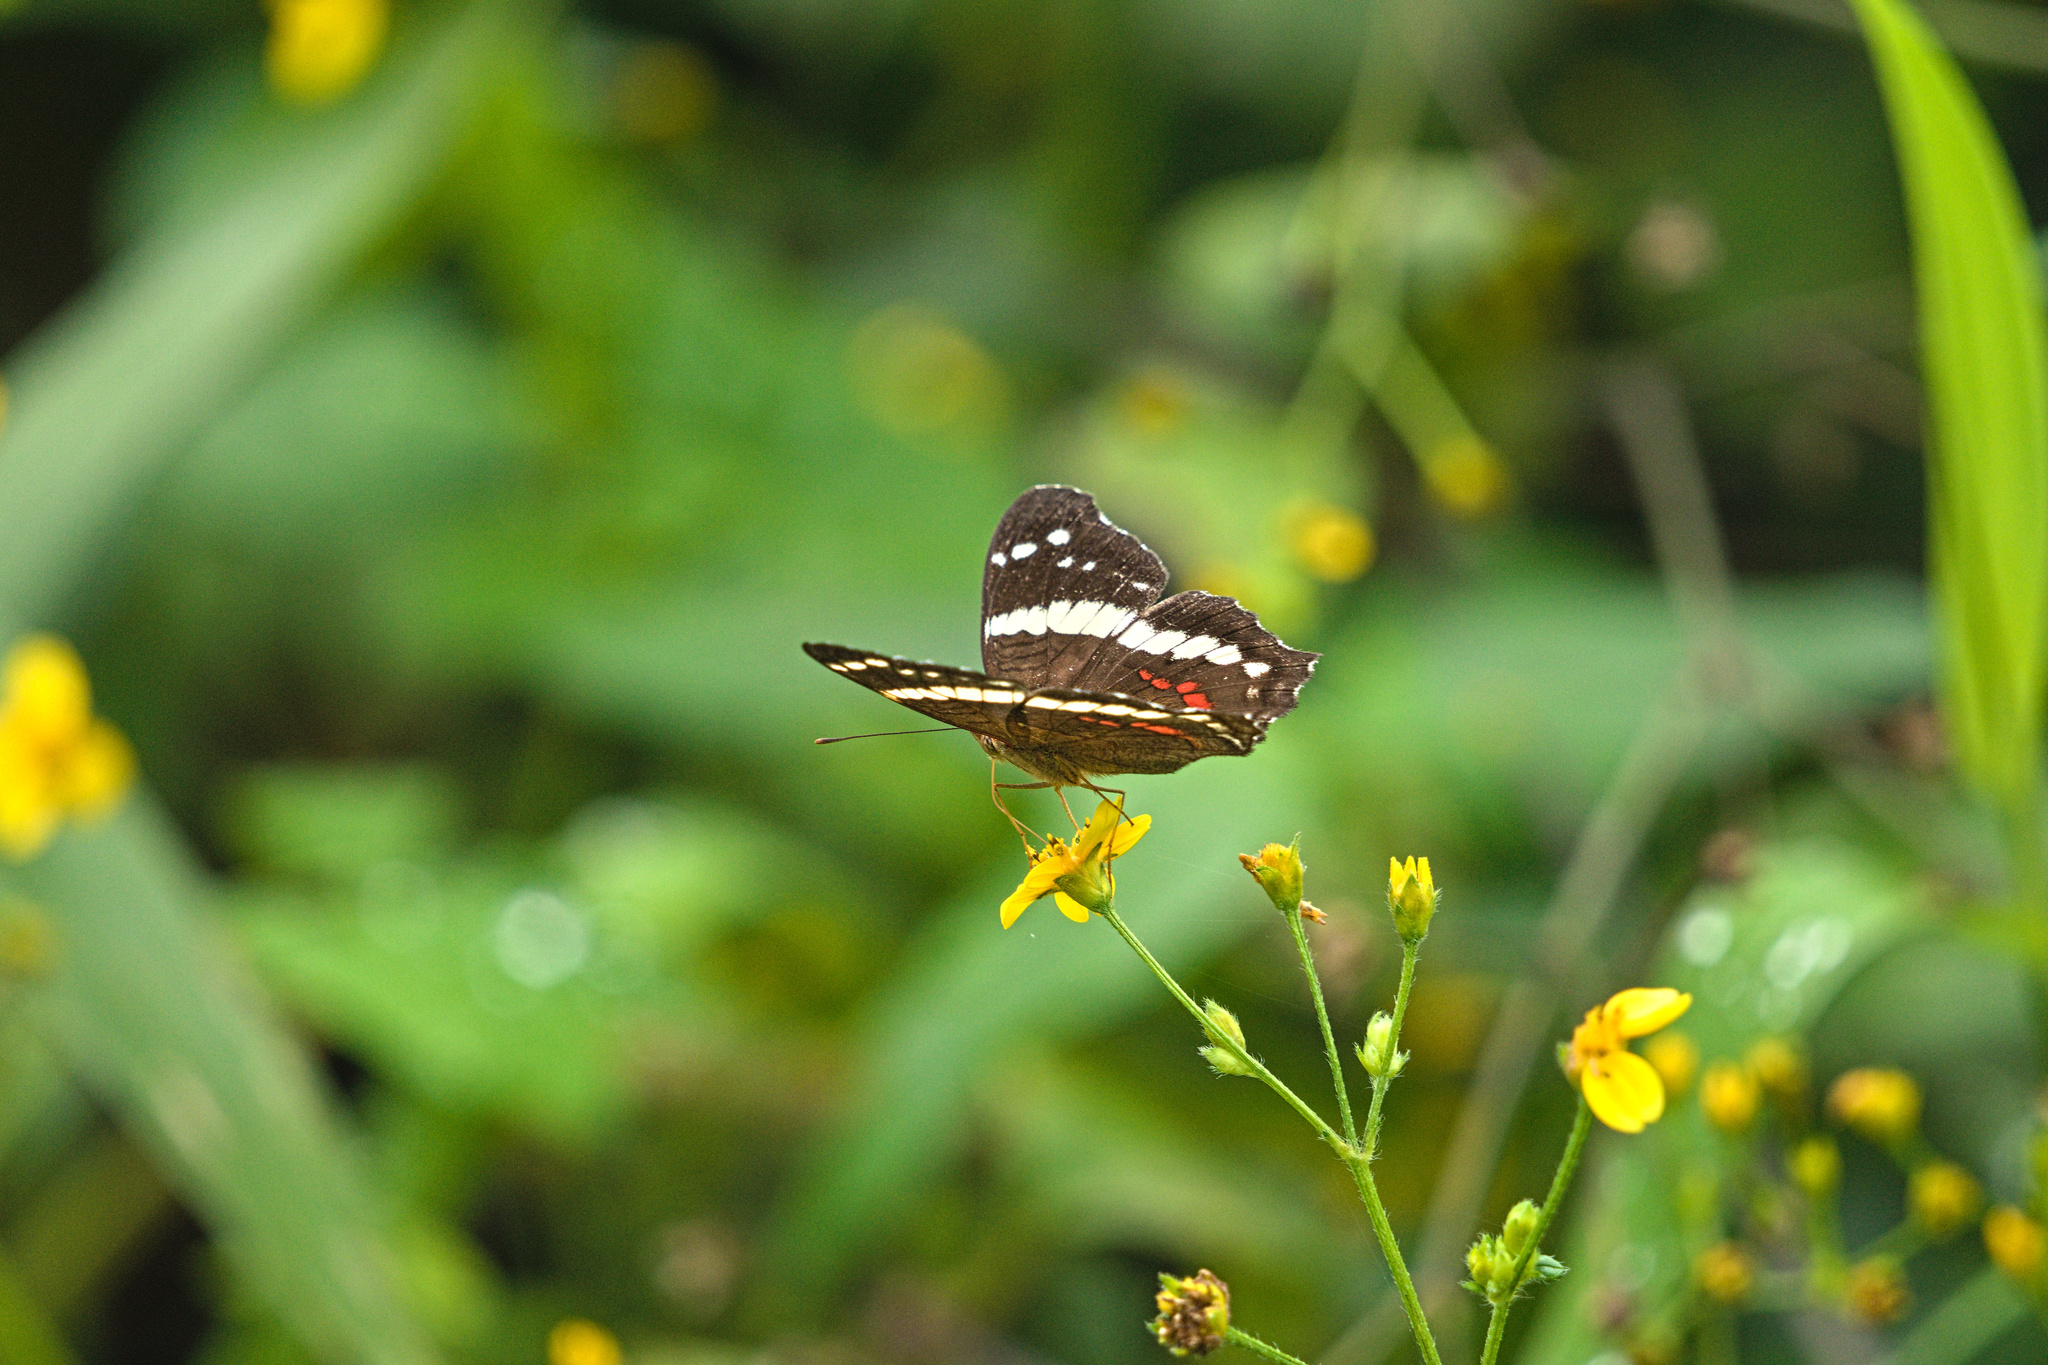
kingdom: Animalia
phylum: Arthropoda
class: Insecta
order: Lepidoptera
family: Nymphalidae
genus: Anartia
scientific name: Anartia fatima
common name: Banded peacock
